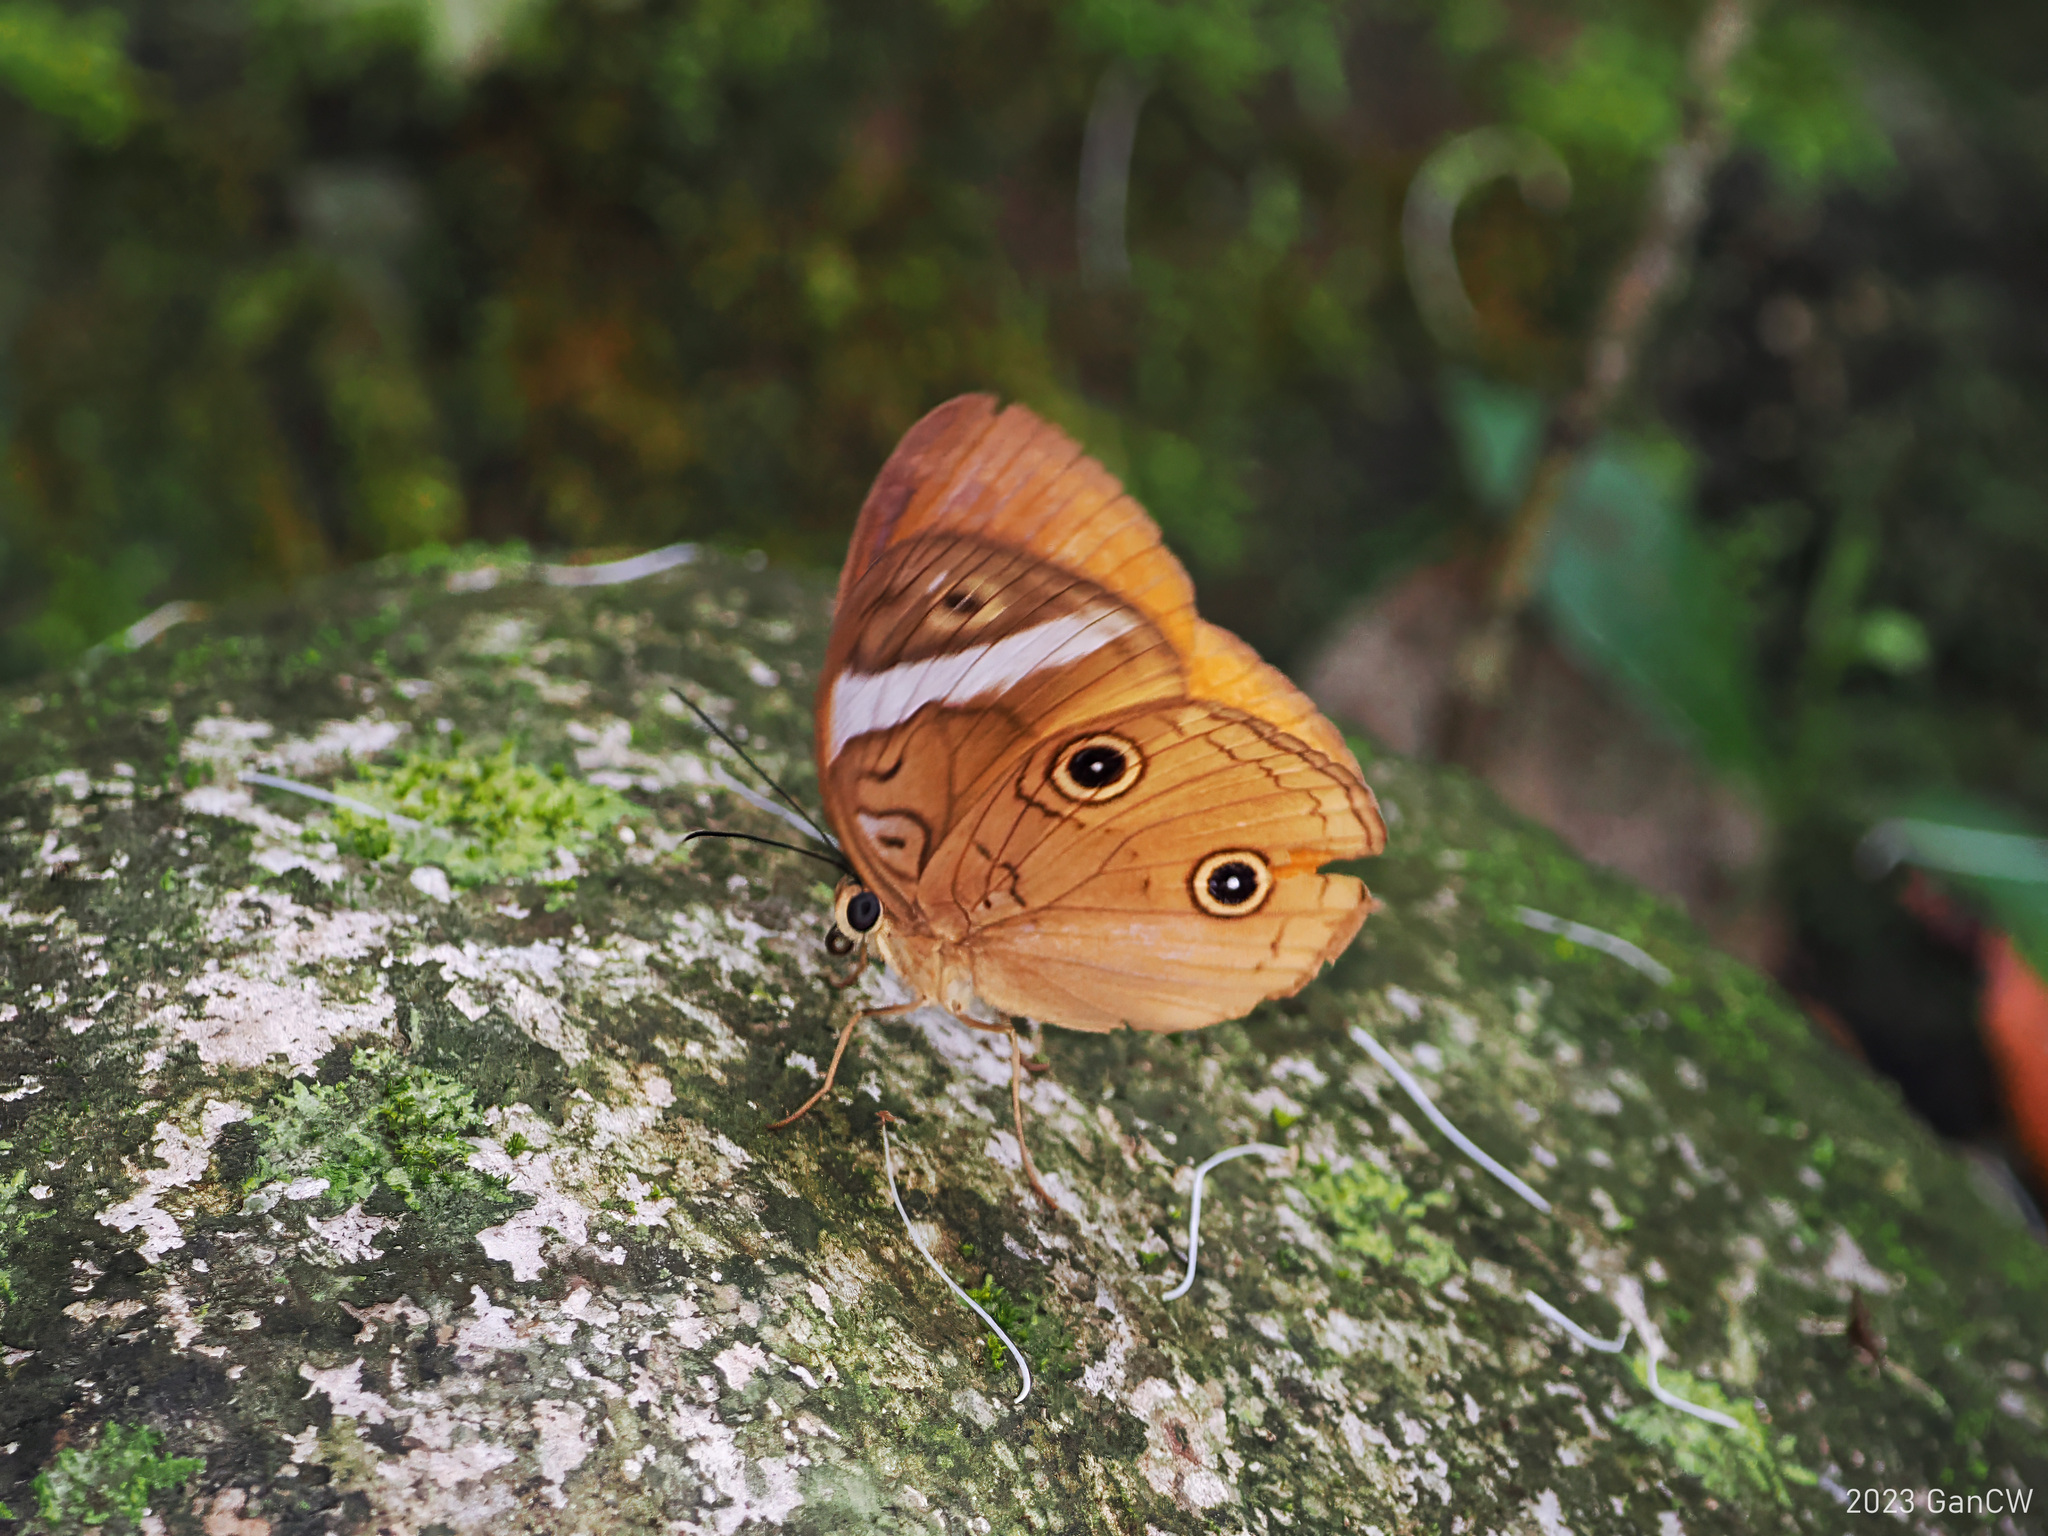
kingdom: Animalia
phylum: Arthropoda
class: Insecta
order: Lepidoptera
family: Nymphalidae
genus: Faunis
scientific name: Faunis menado
